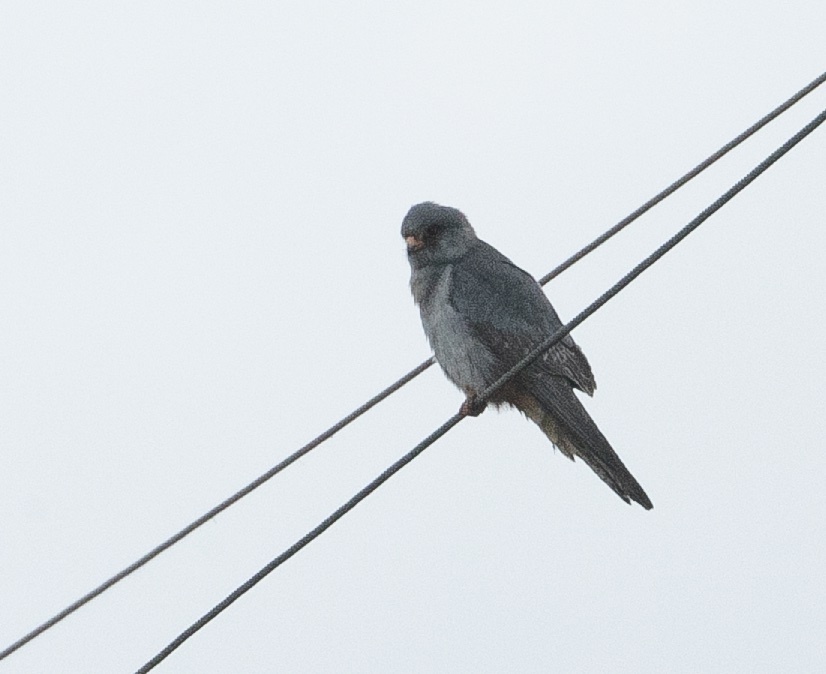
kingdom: Animalia
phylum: Chordata
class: Aves
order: Falconiformes
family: Falconidae
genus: Falco
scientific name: Falco vespertinus
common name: Red-footed falcon
